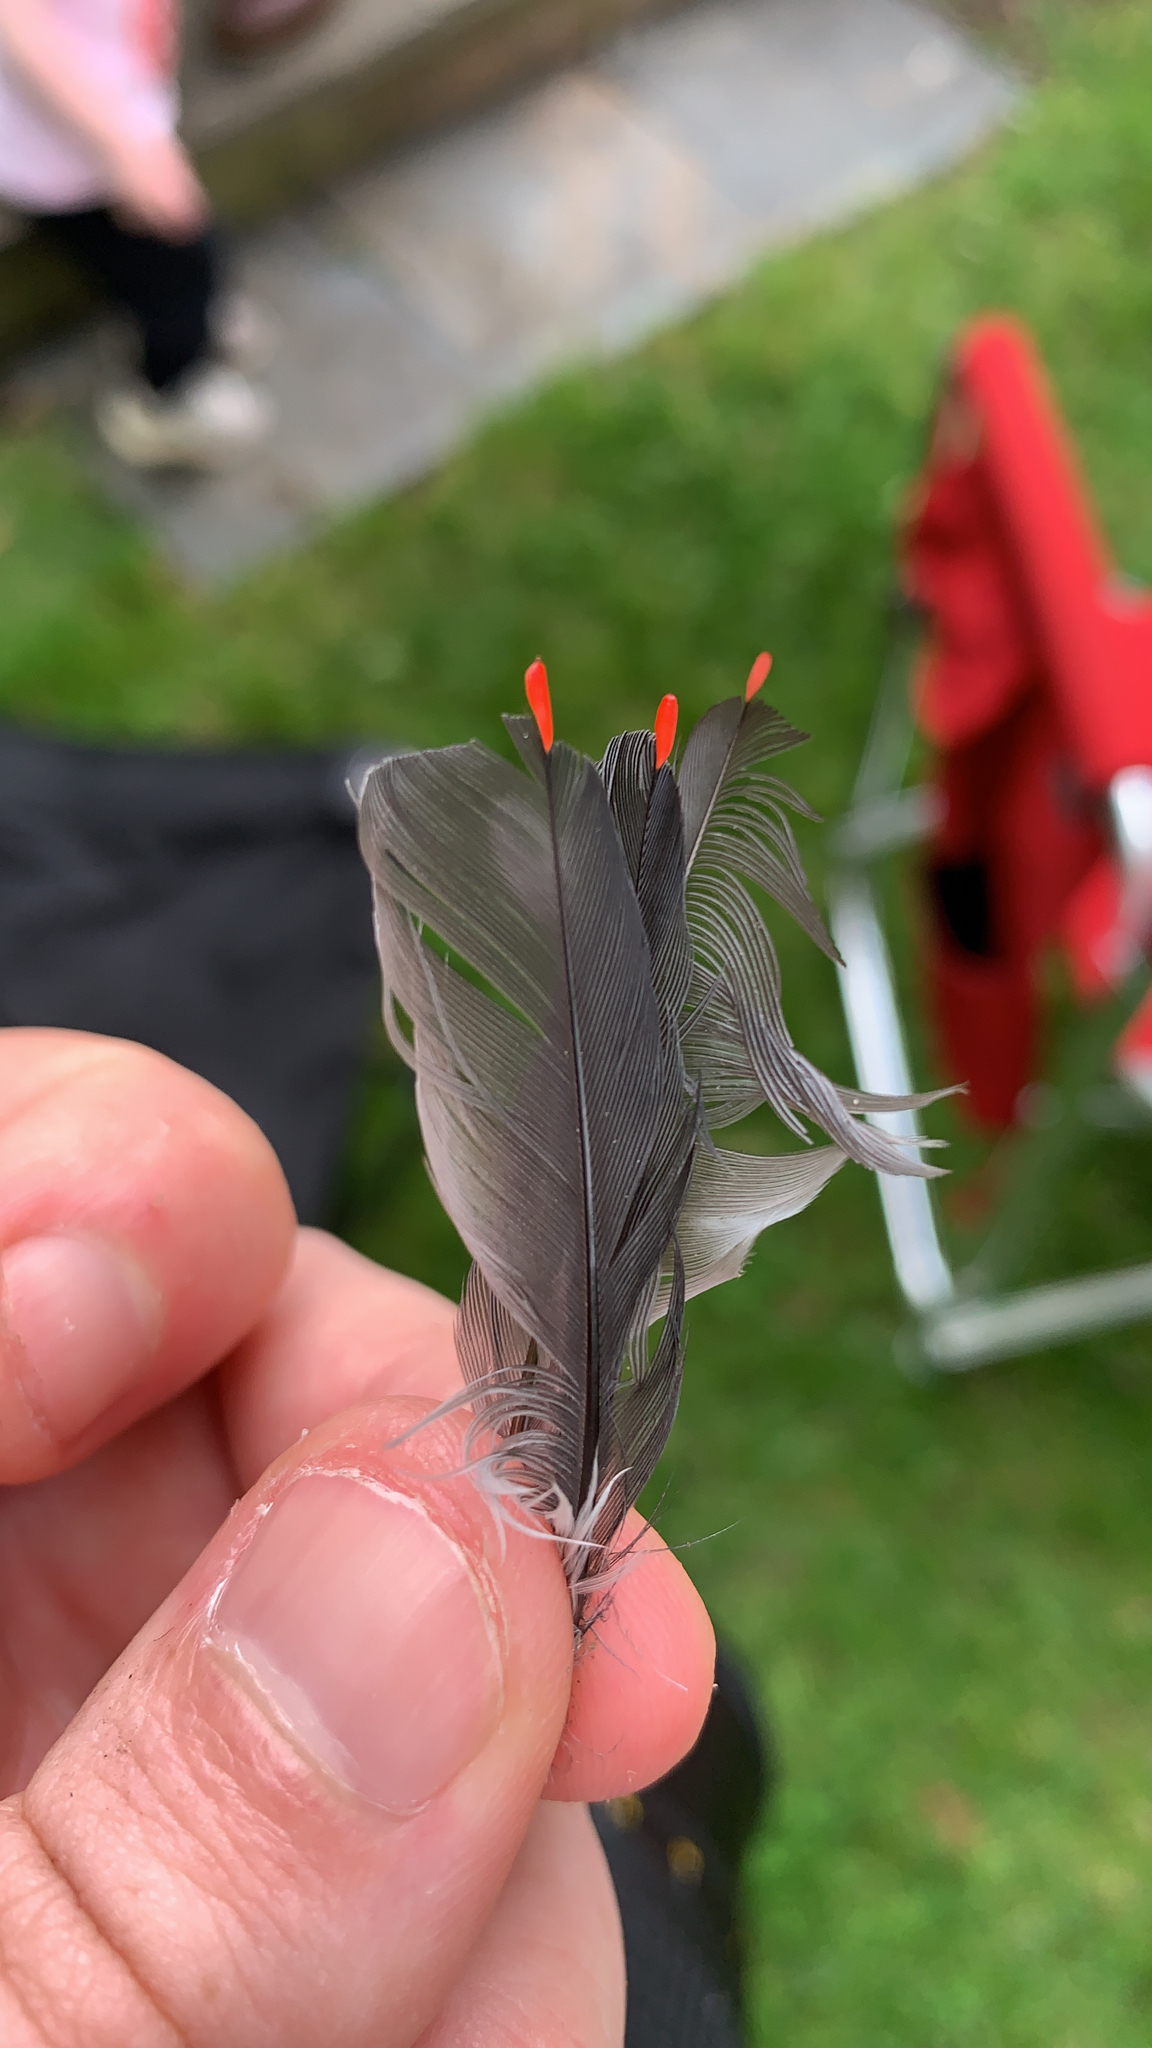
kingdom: Animalia
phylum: Chordata
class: Aves
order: Passeriformes
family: Bombycillidae
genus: Bombycilla
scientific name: Bombycilla cedrorum
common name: Cedar waxwing
